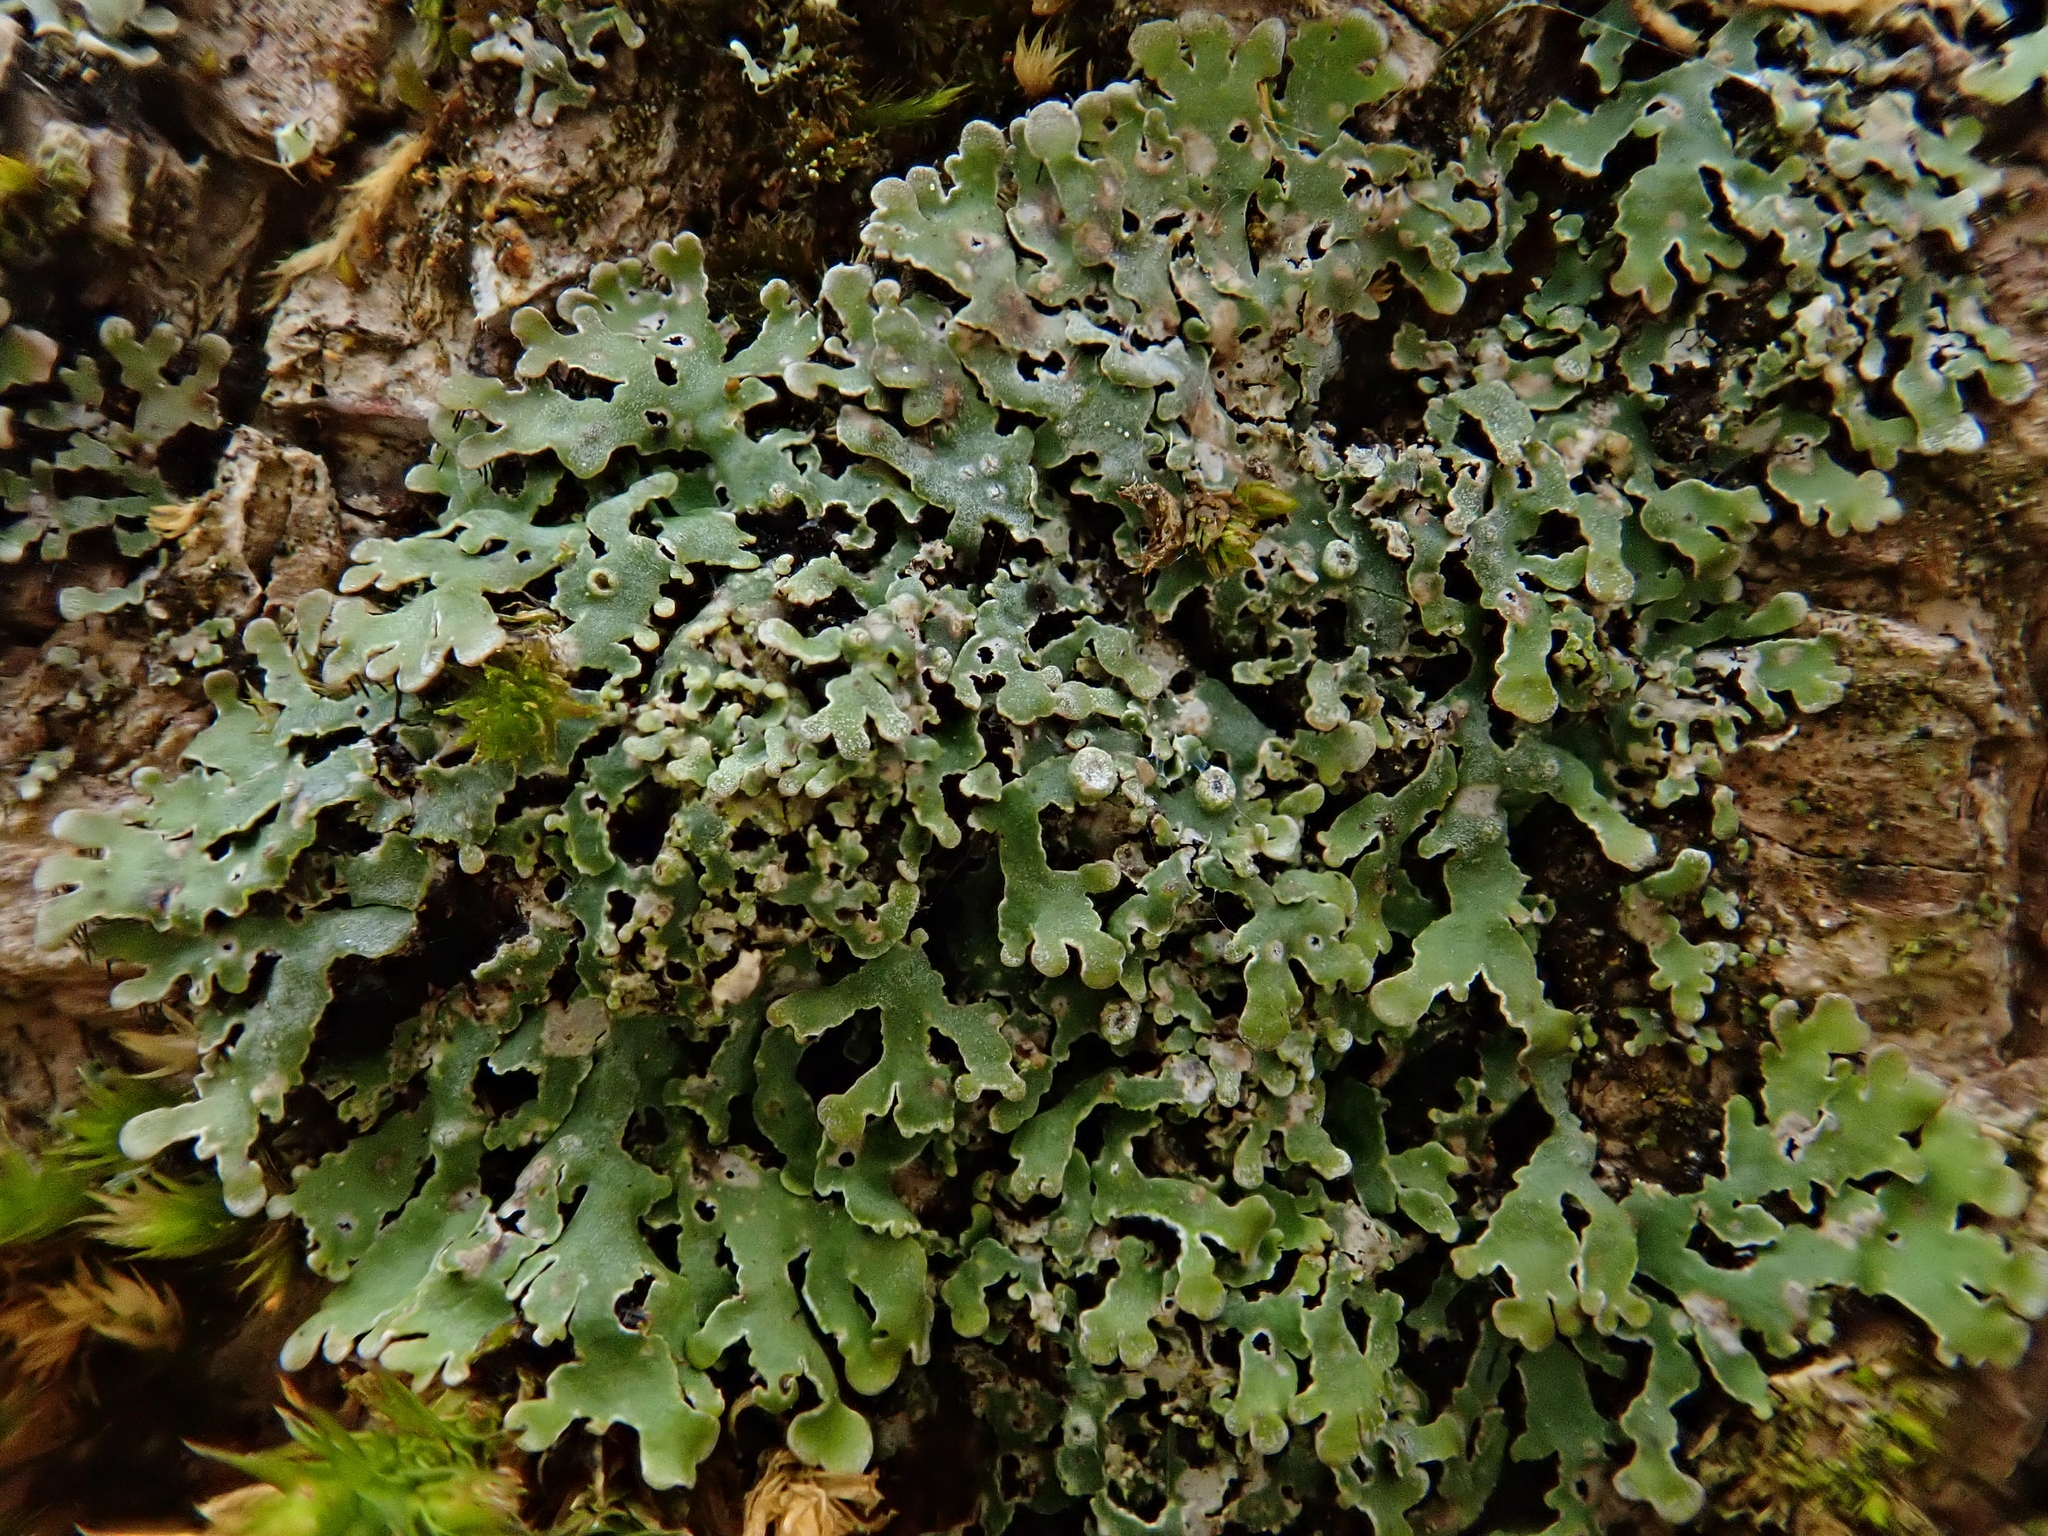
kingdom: Fungi
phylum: Ascomycota
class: Lecanoromycetes
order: Caliciales
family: Physciaceae
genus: Physconia
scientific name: Physconia distorta
